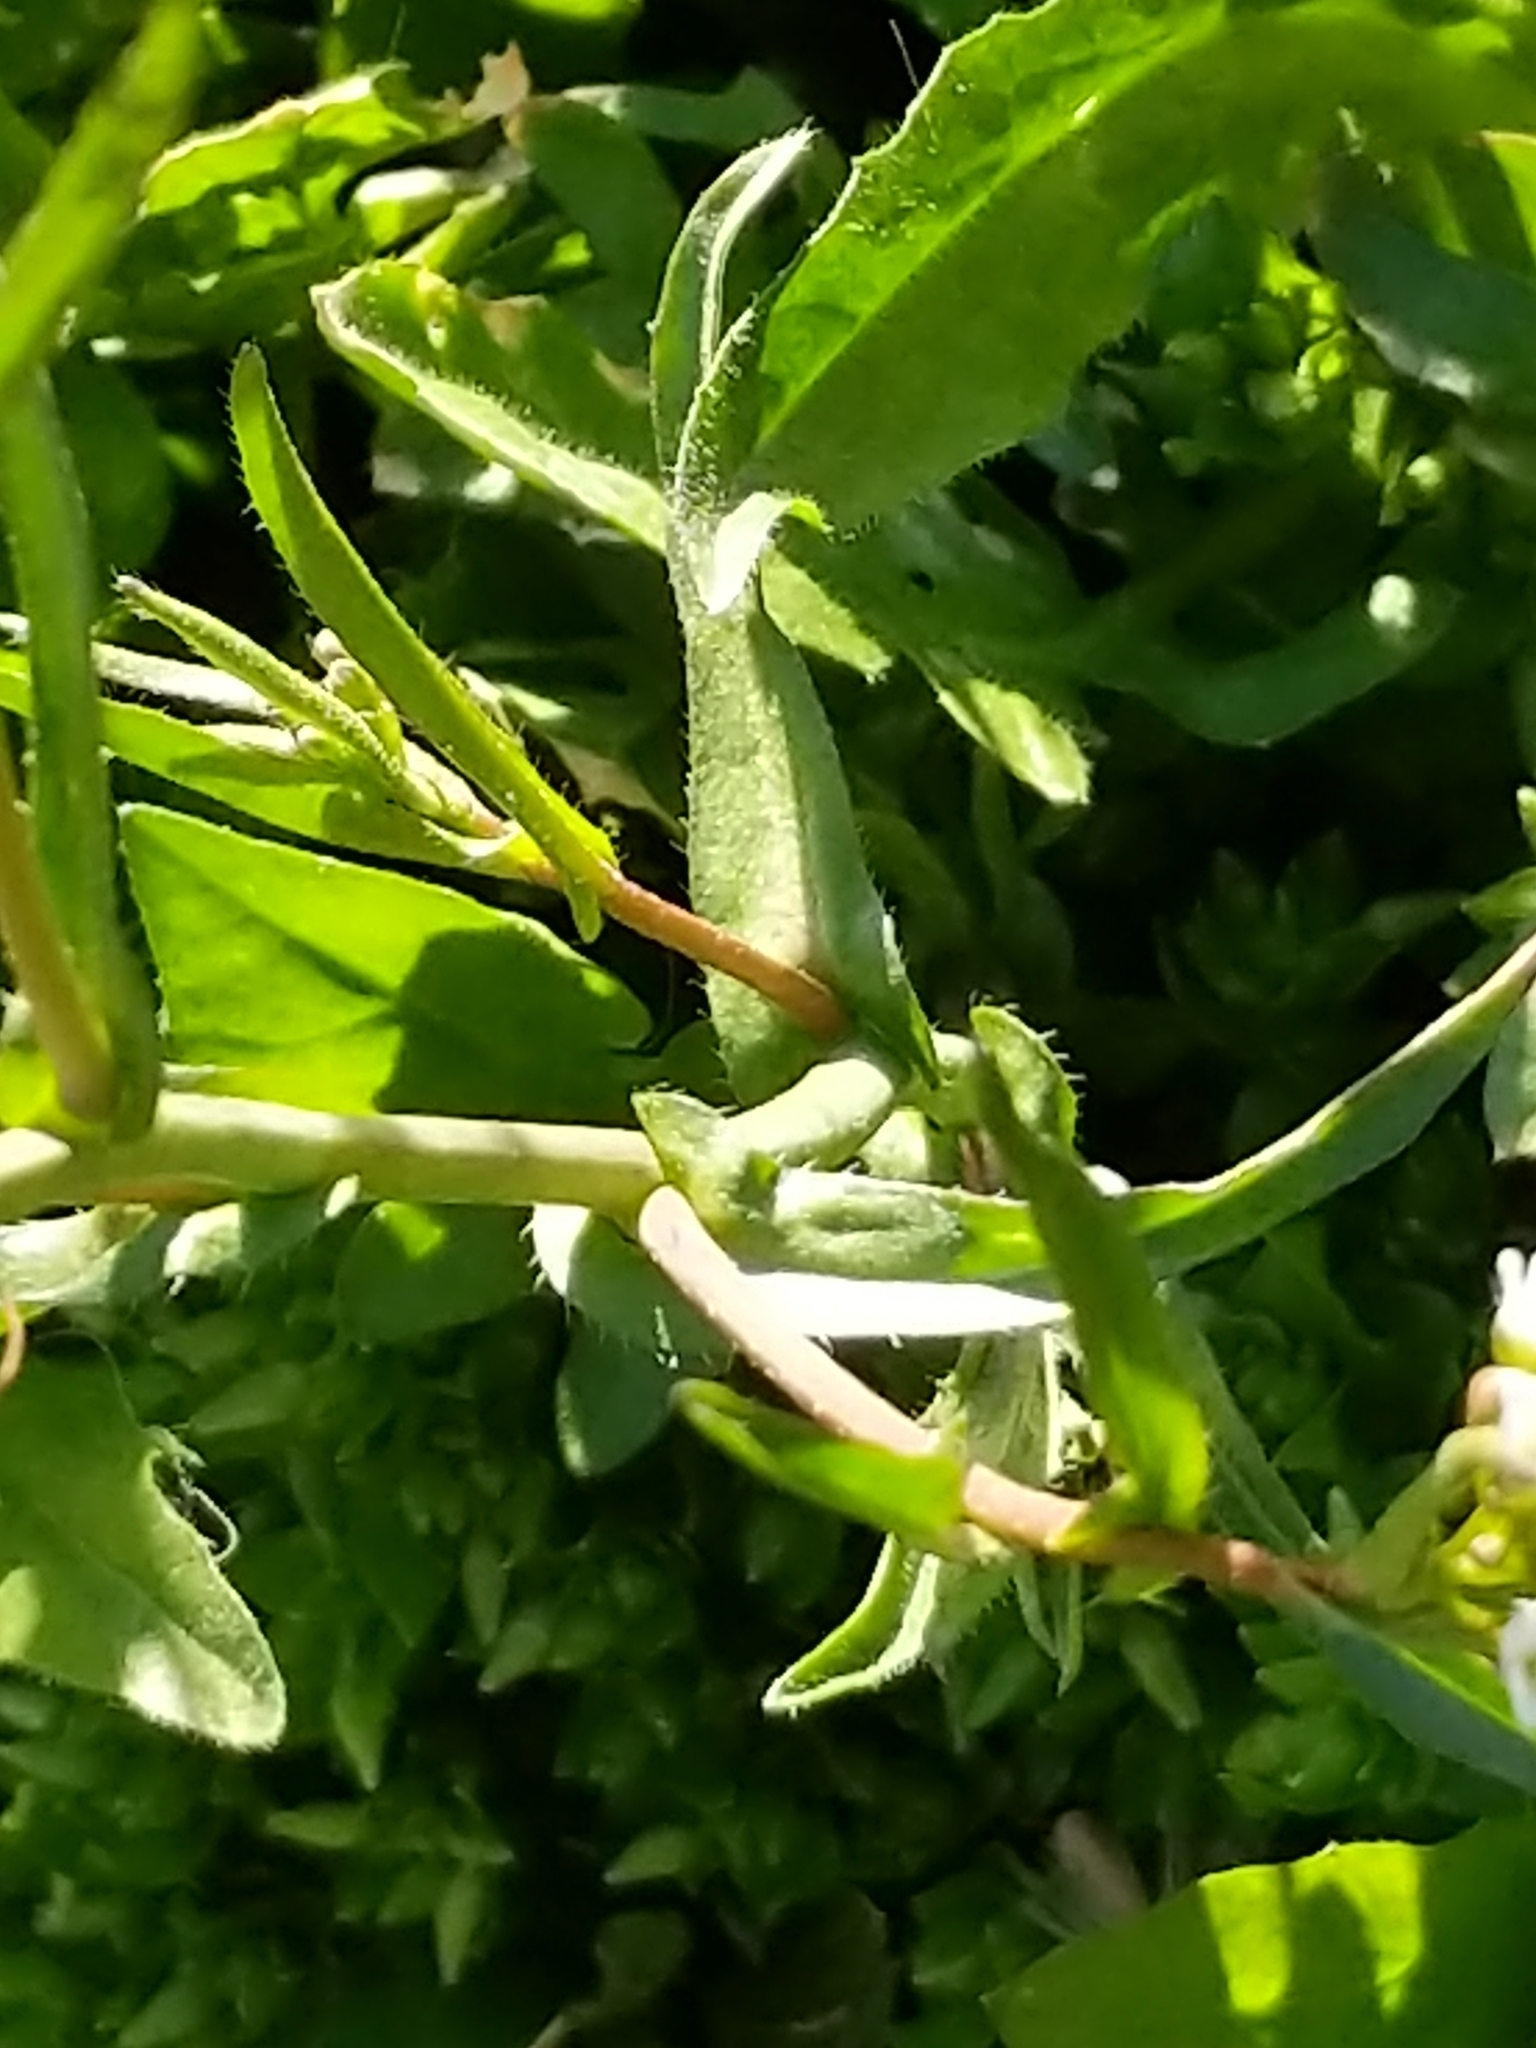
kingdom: Plantae
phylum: Tracheophyta
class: Magnoliopsida
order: Brassicales
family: Brassicaceae
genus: Capsella
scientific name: Capsella bursa-pastoris
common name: Shepherd's purse
